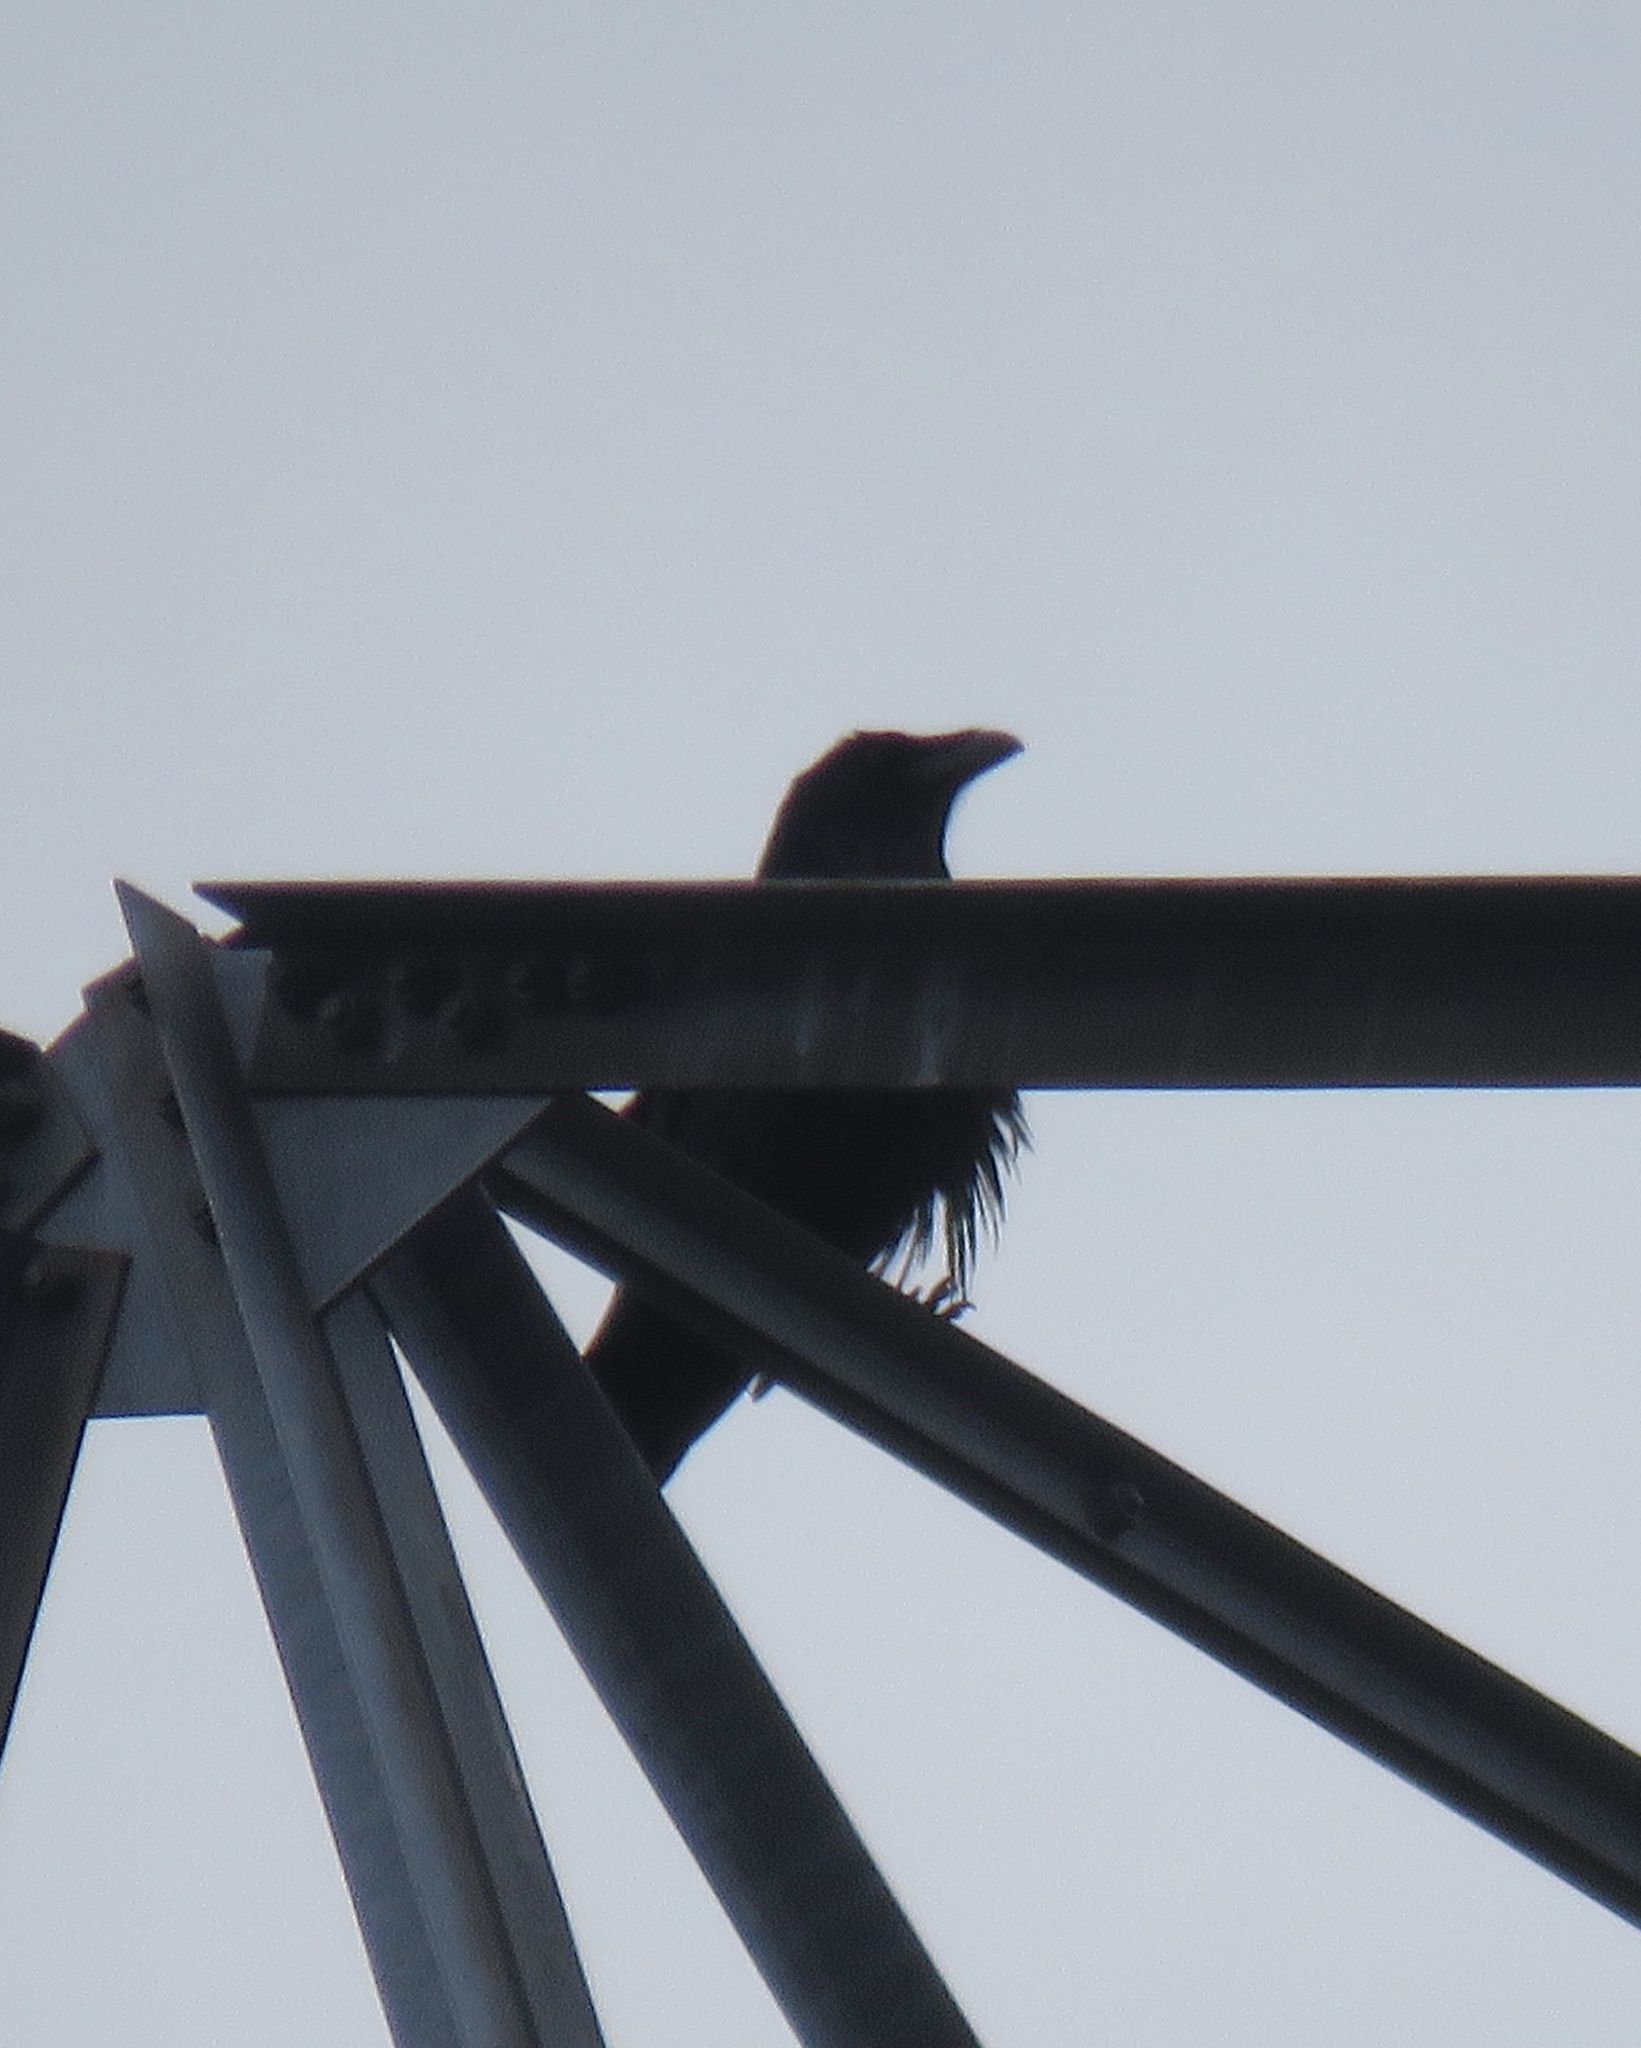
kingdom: Animalia
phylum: Chordata
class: Aves
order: Passeriformes
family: Corvidae
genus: Corvus
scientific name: Corvus corax
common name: Common raven
